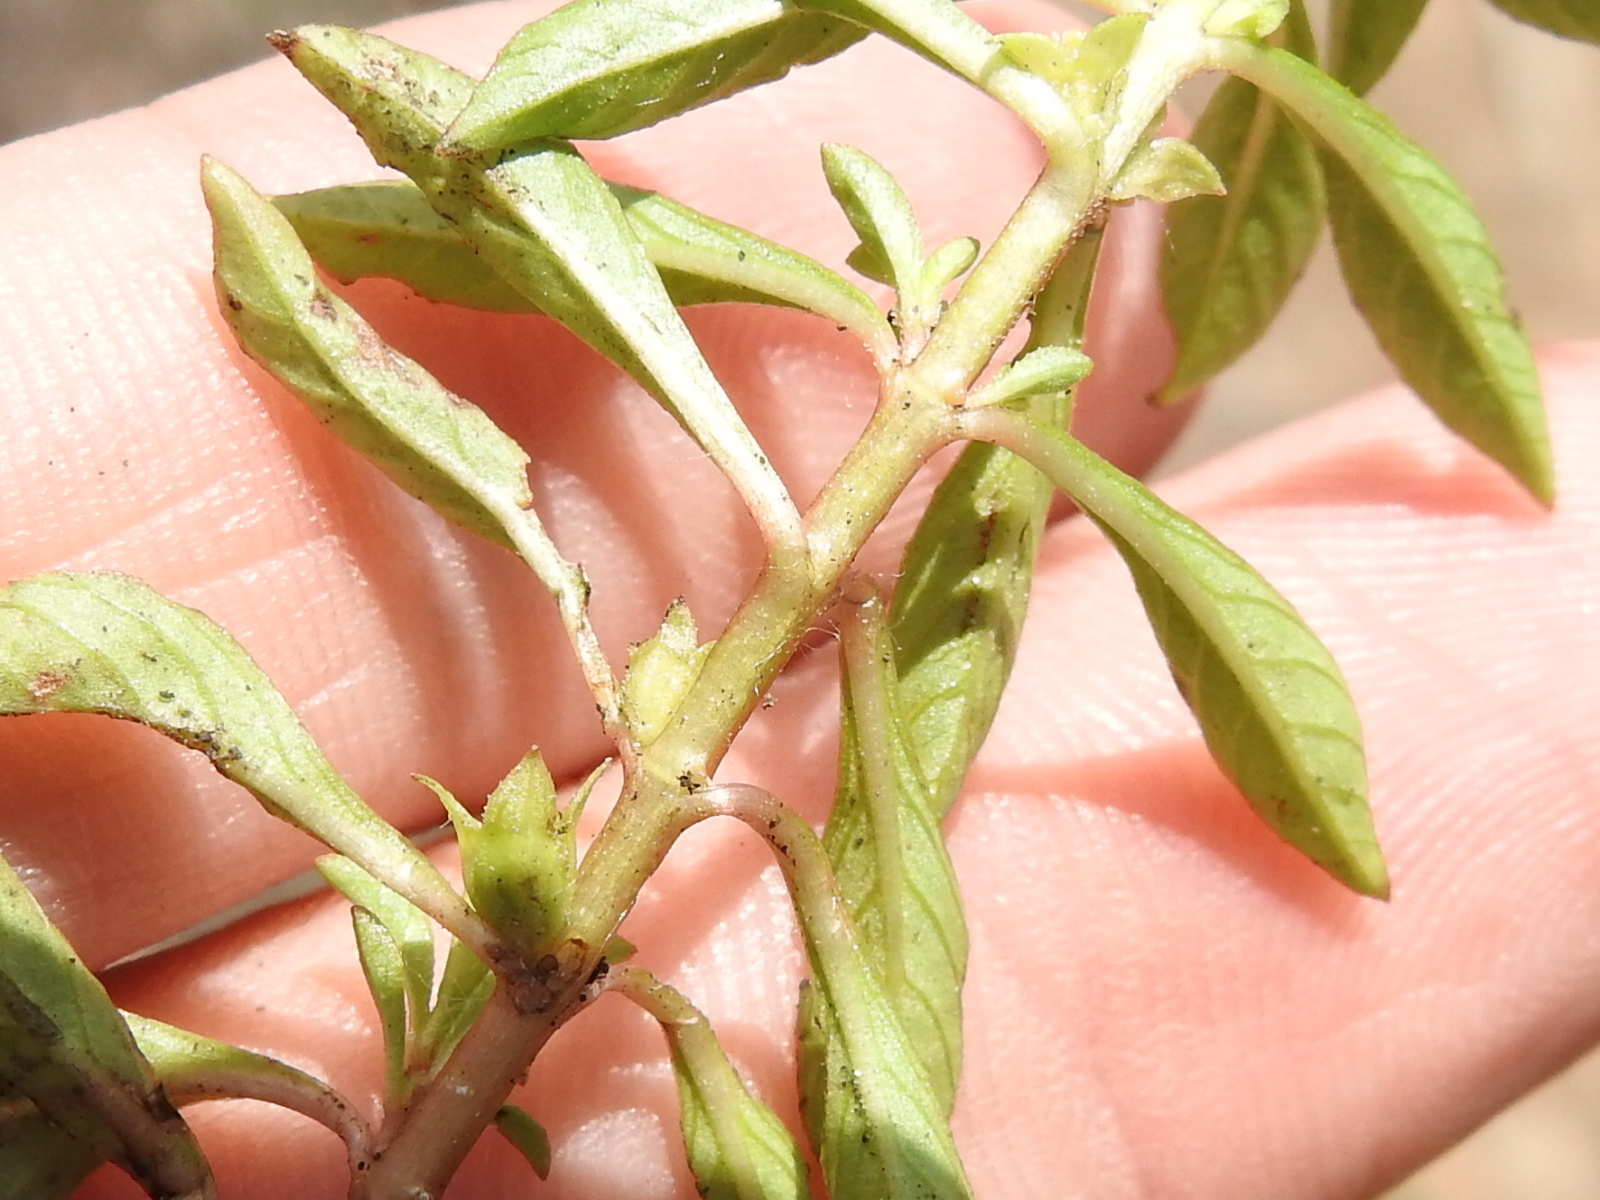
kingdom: Plantae
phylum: Tracheophyta
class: Magnoliopsida
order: Myrtales
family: Onagraceae
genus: Ludwigia
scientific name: Ludwigia palustris
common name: Hampshire-purslane
